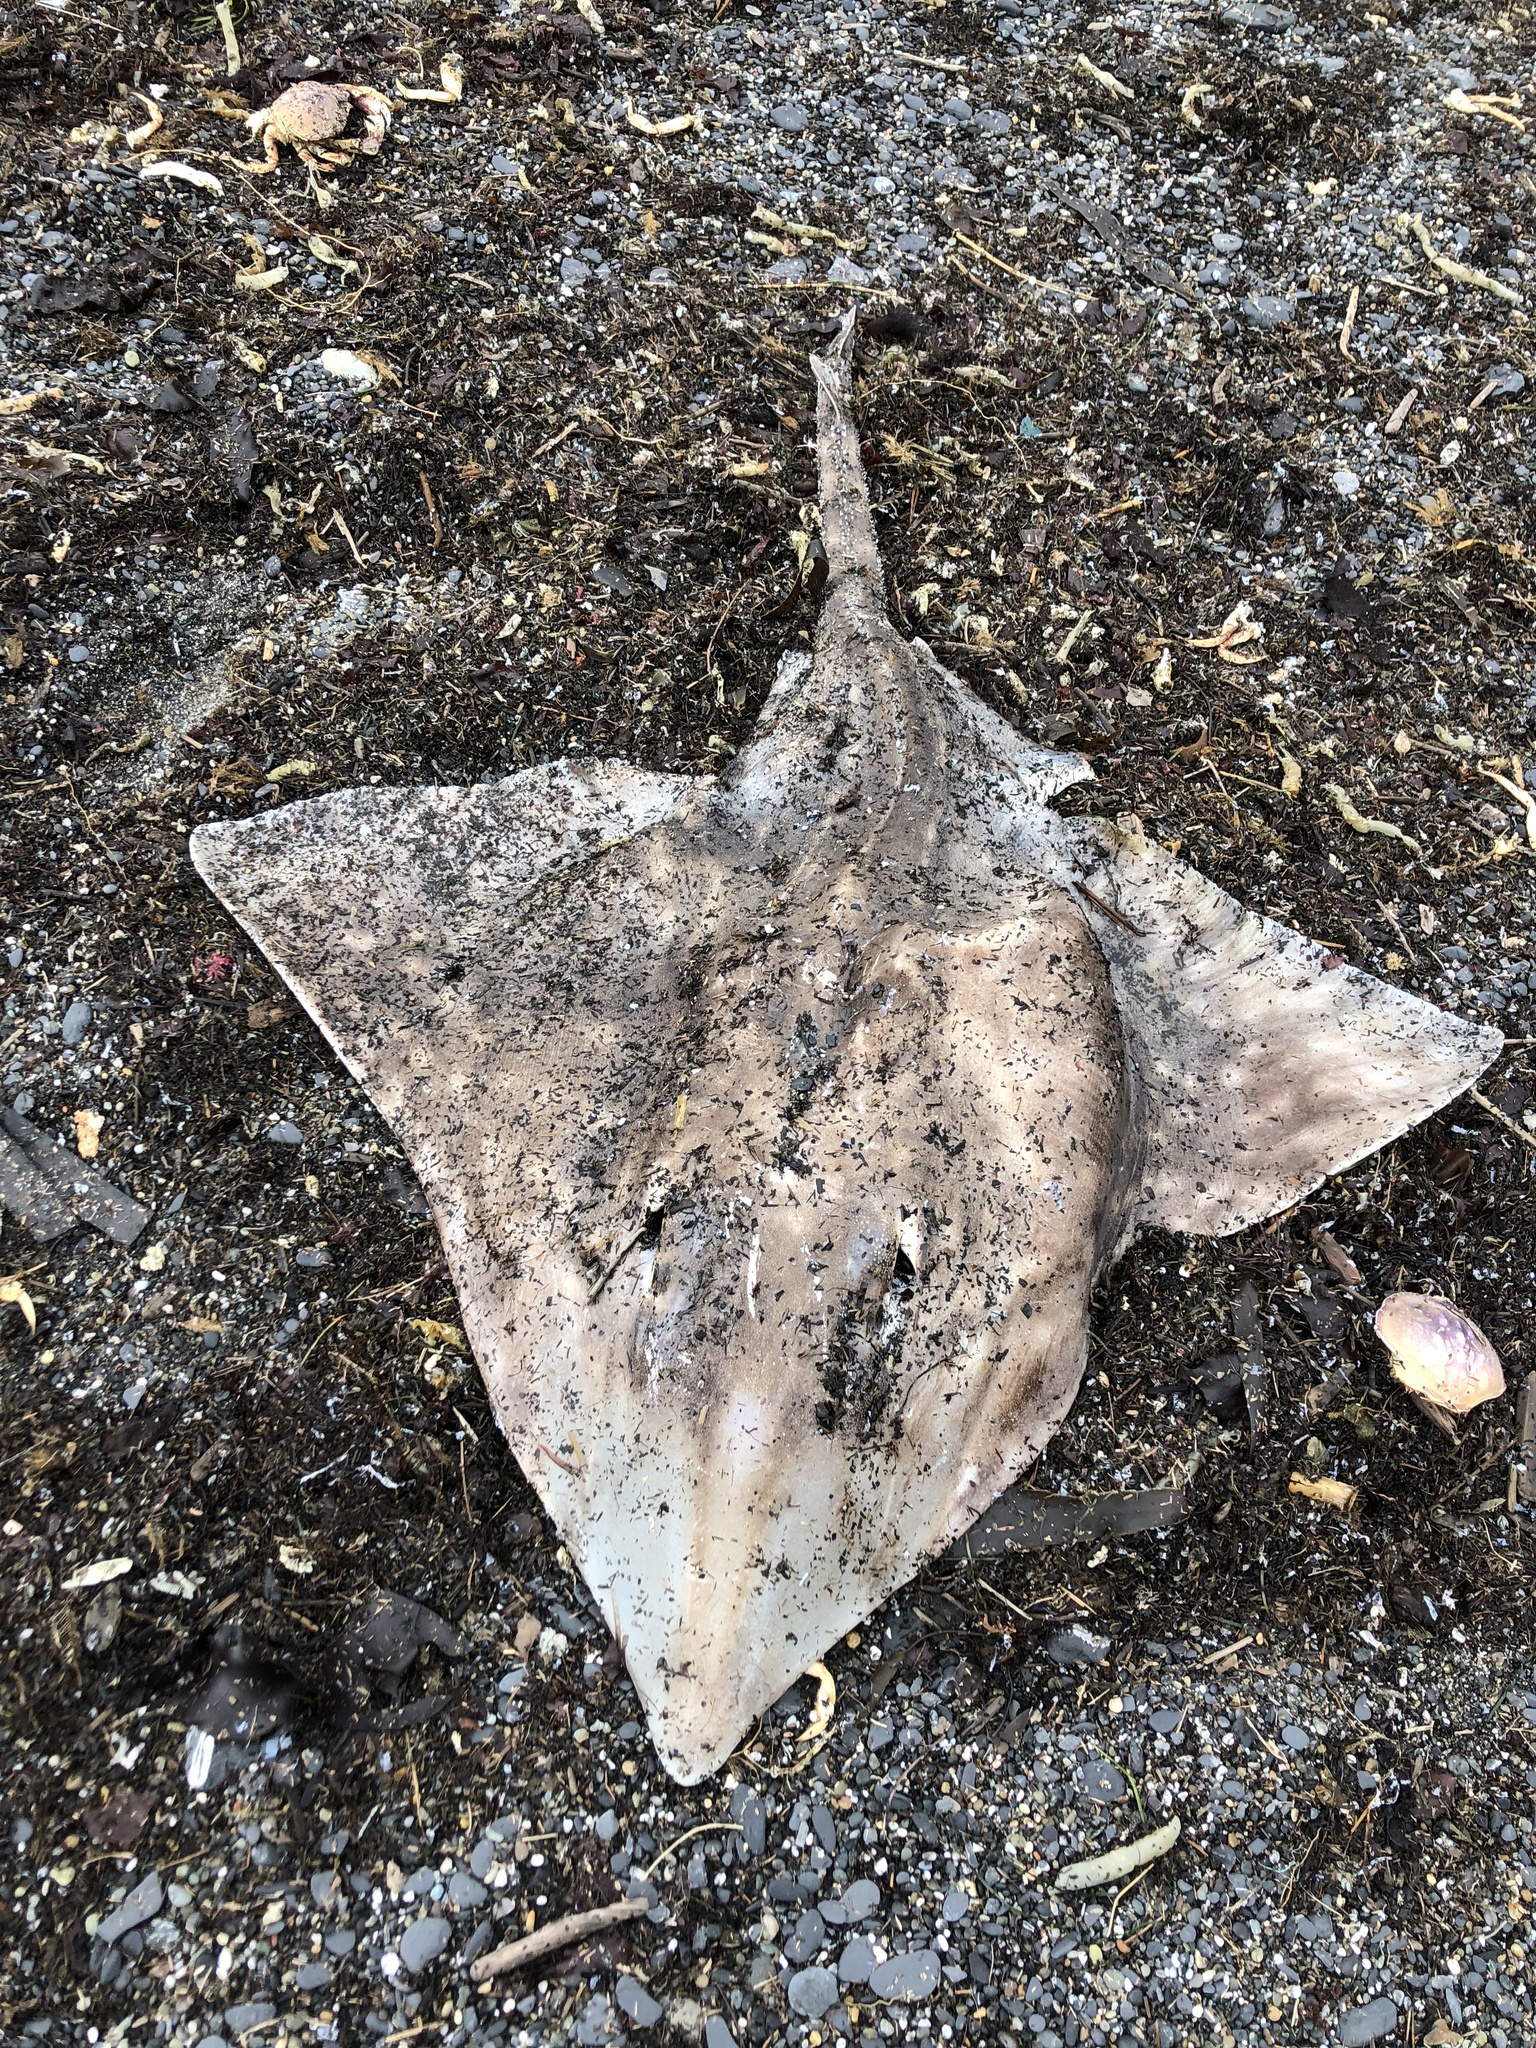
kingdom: Animalia
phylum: Chordata
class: Elasmobranchii
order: Rajiformes
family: Rajidae
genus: Beringraja
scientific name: Beringraja binoculata
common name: Big skate
